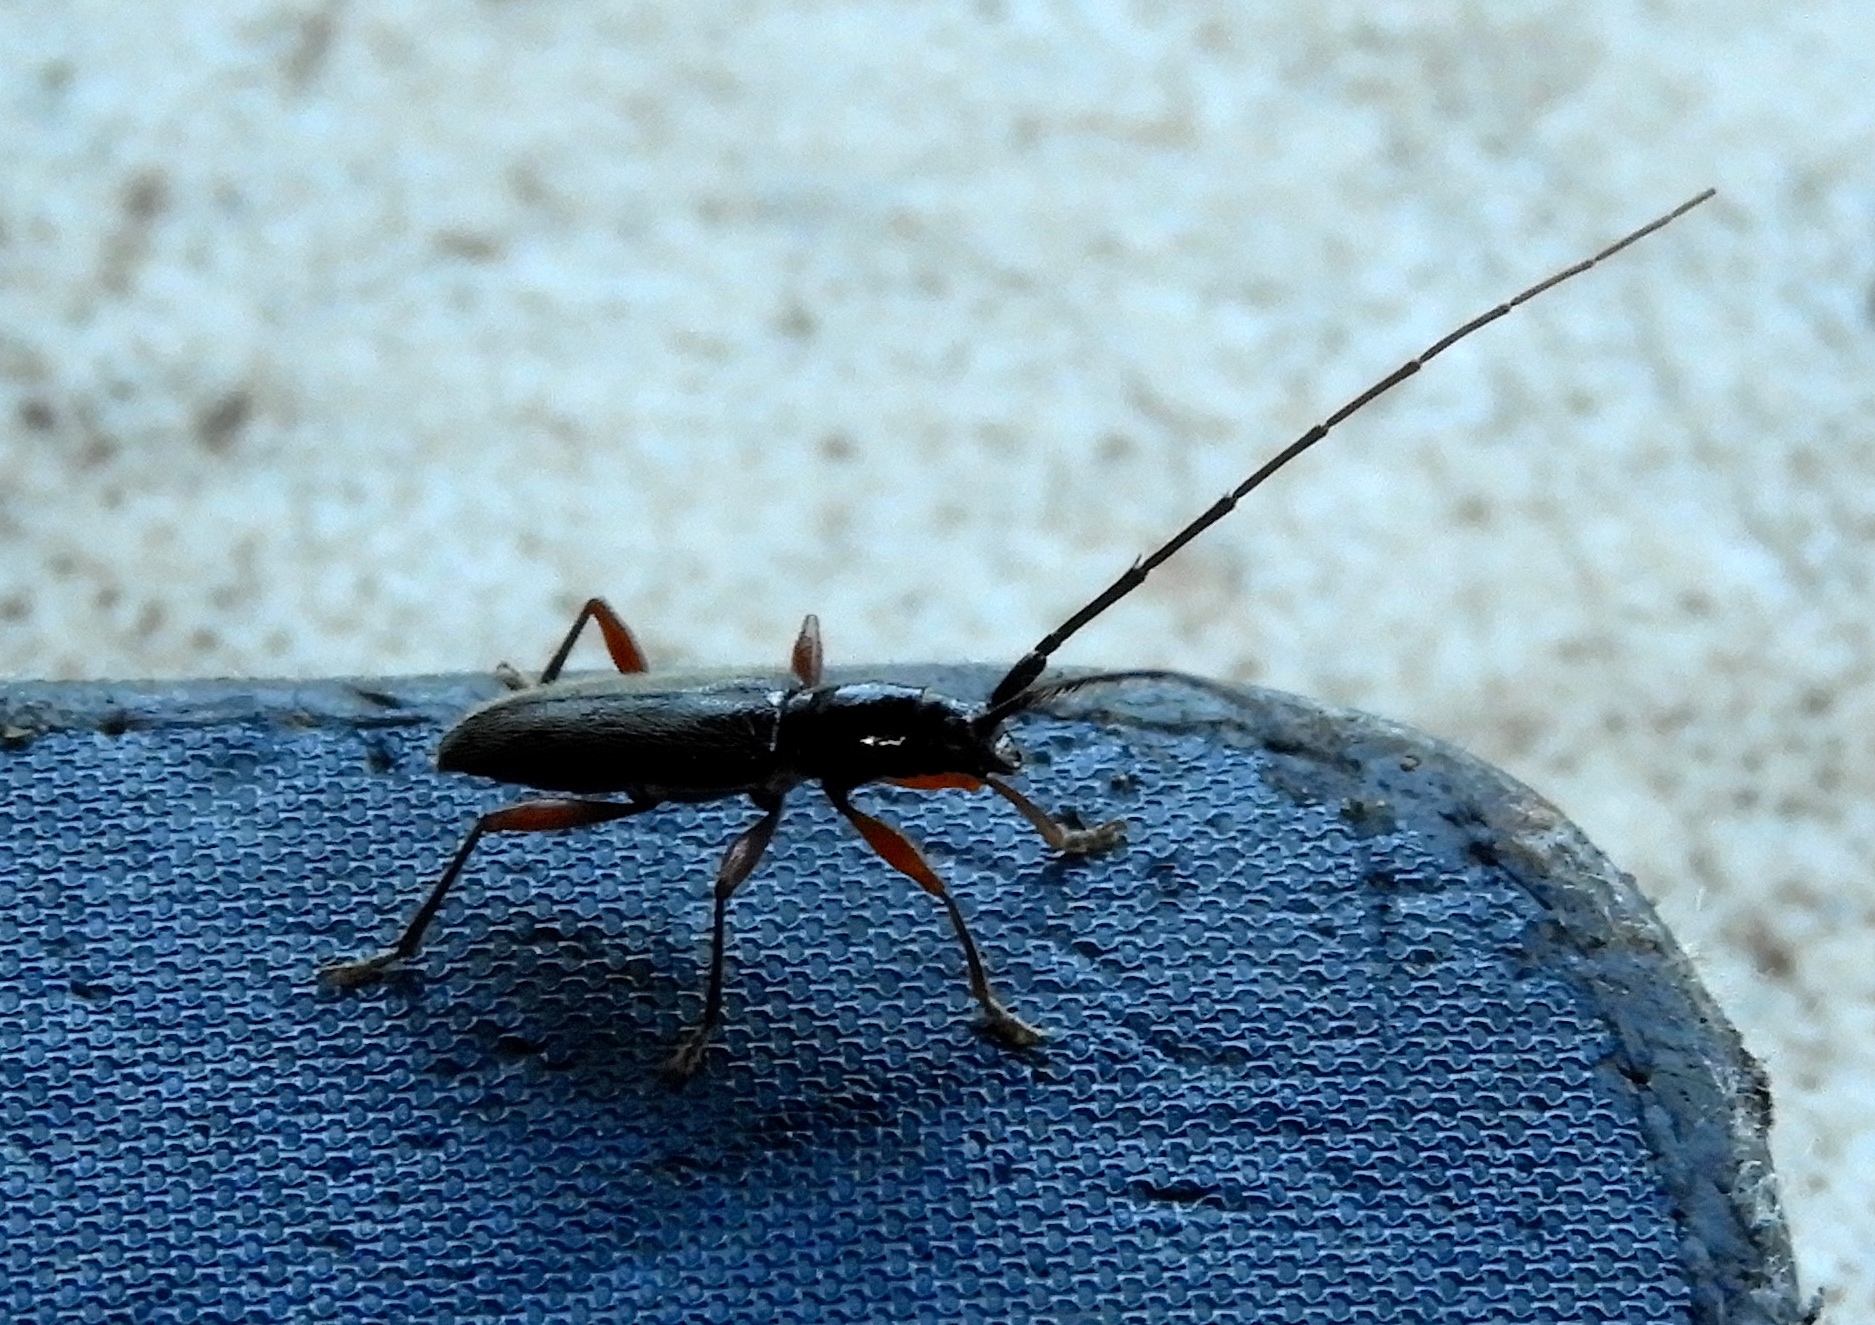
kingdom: Animalia
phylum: Arthropoda
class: Insecta
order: Coleoptera
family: Cerambycidae
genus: Stenosphenus
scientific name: Stenosphenus
